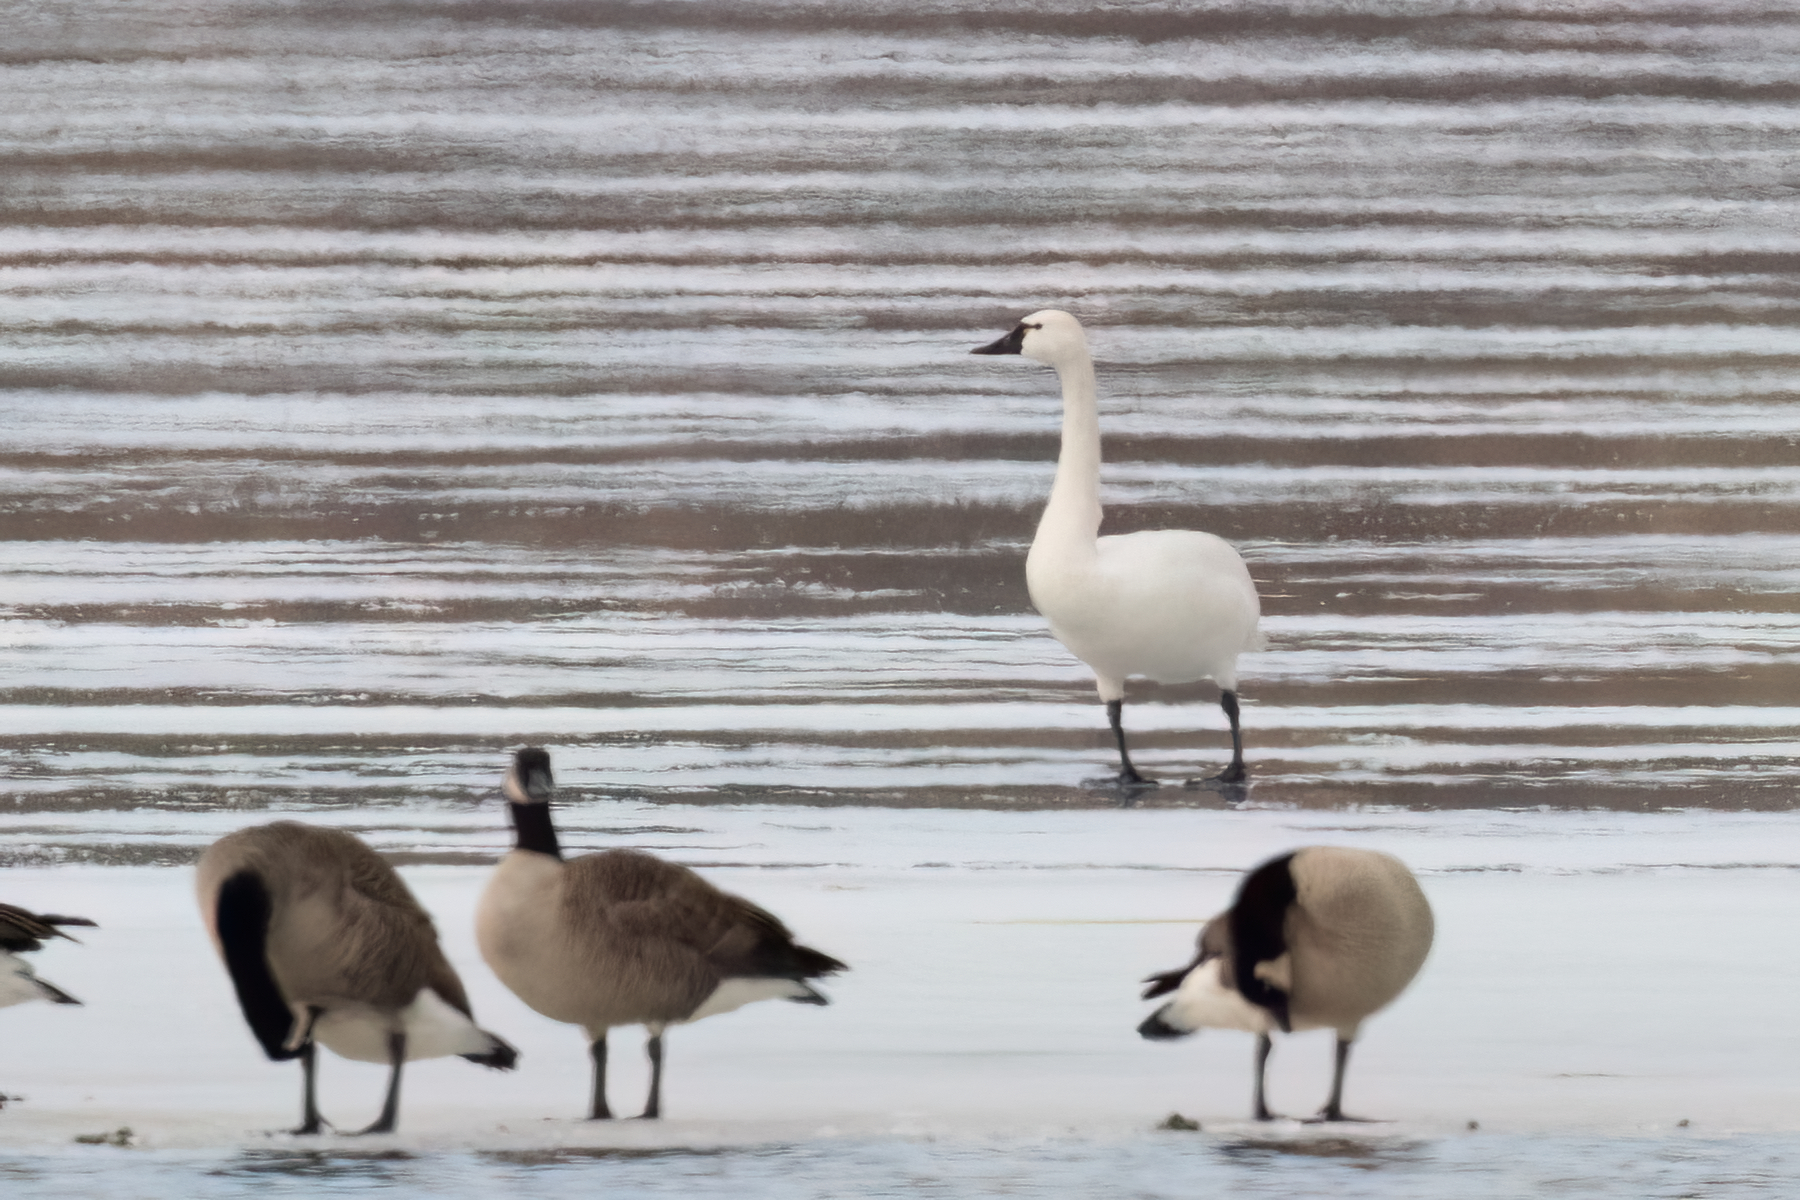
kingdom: Animalia
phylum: Chordata
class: Aves
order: Anseriformes
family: Anatidae
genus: Cygnus
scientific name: Cygnus columbianus
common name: Tundra swan
